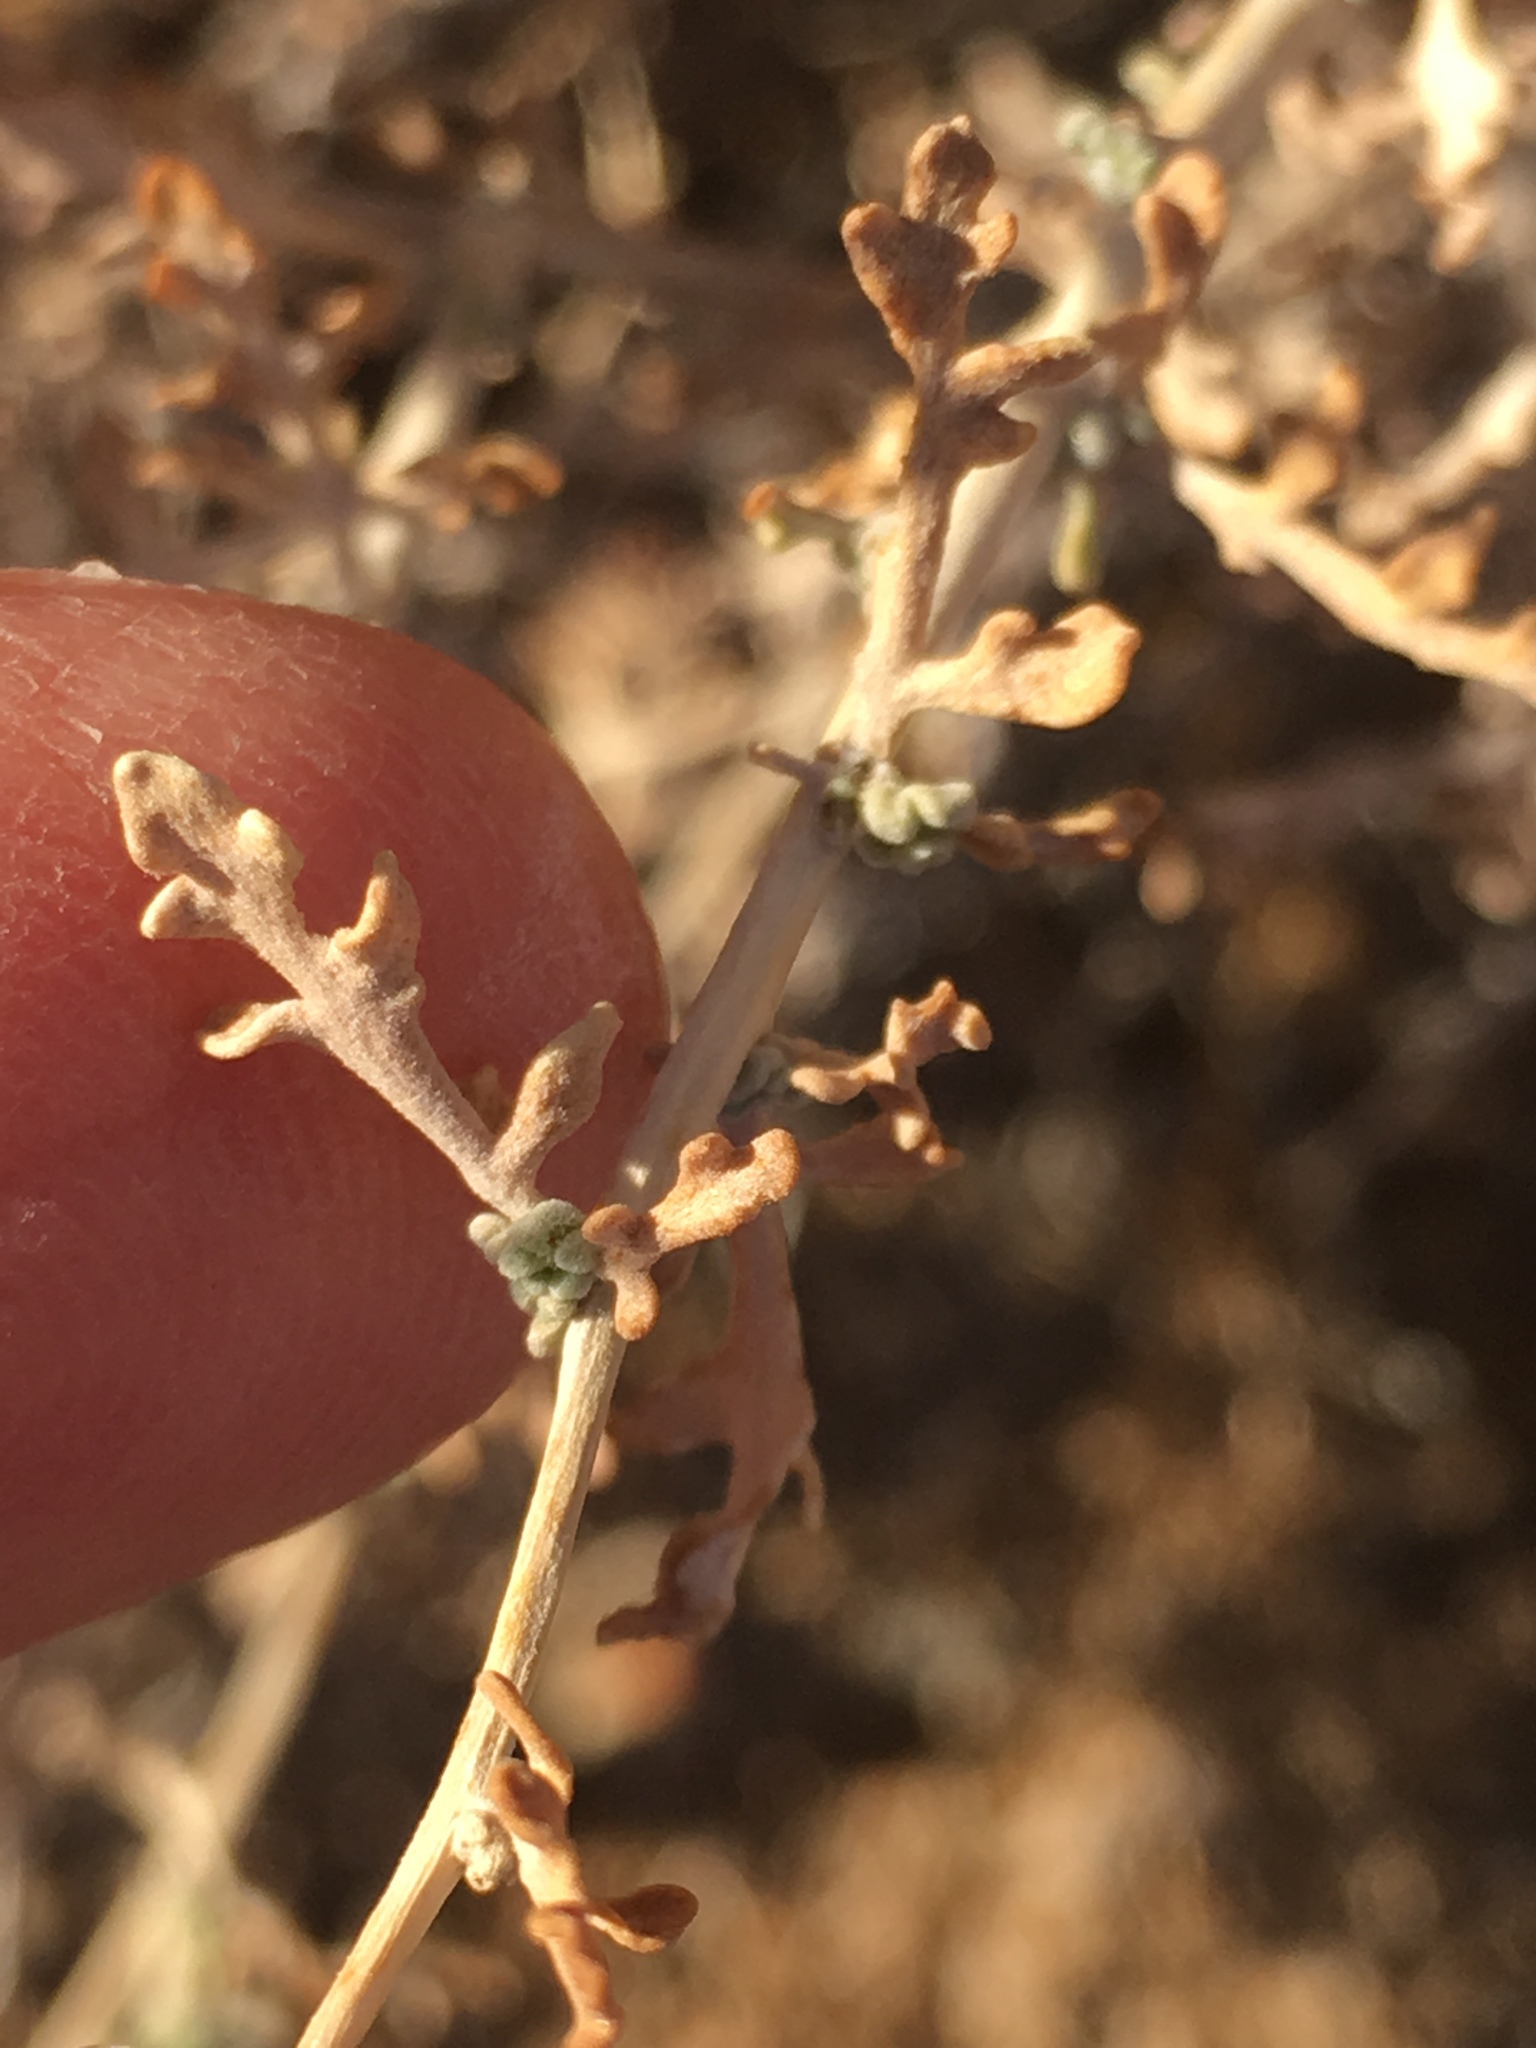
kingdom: Plantae
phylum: Tracheophyta
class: Magnoliopsida
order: Asterales
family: Asteraceae
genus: Ambrosia
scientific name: Ambrosia dumosa
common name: Bur-sage
